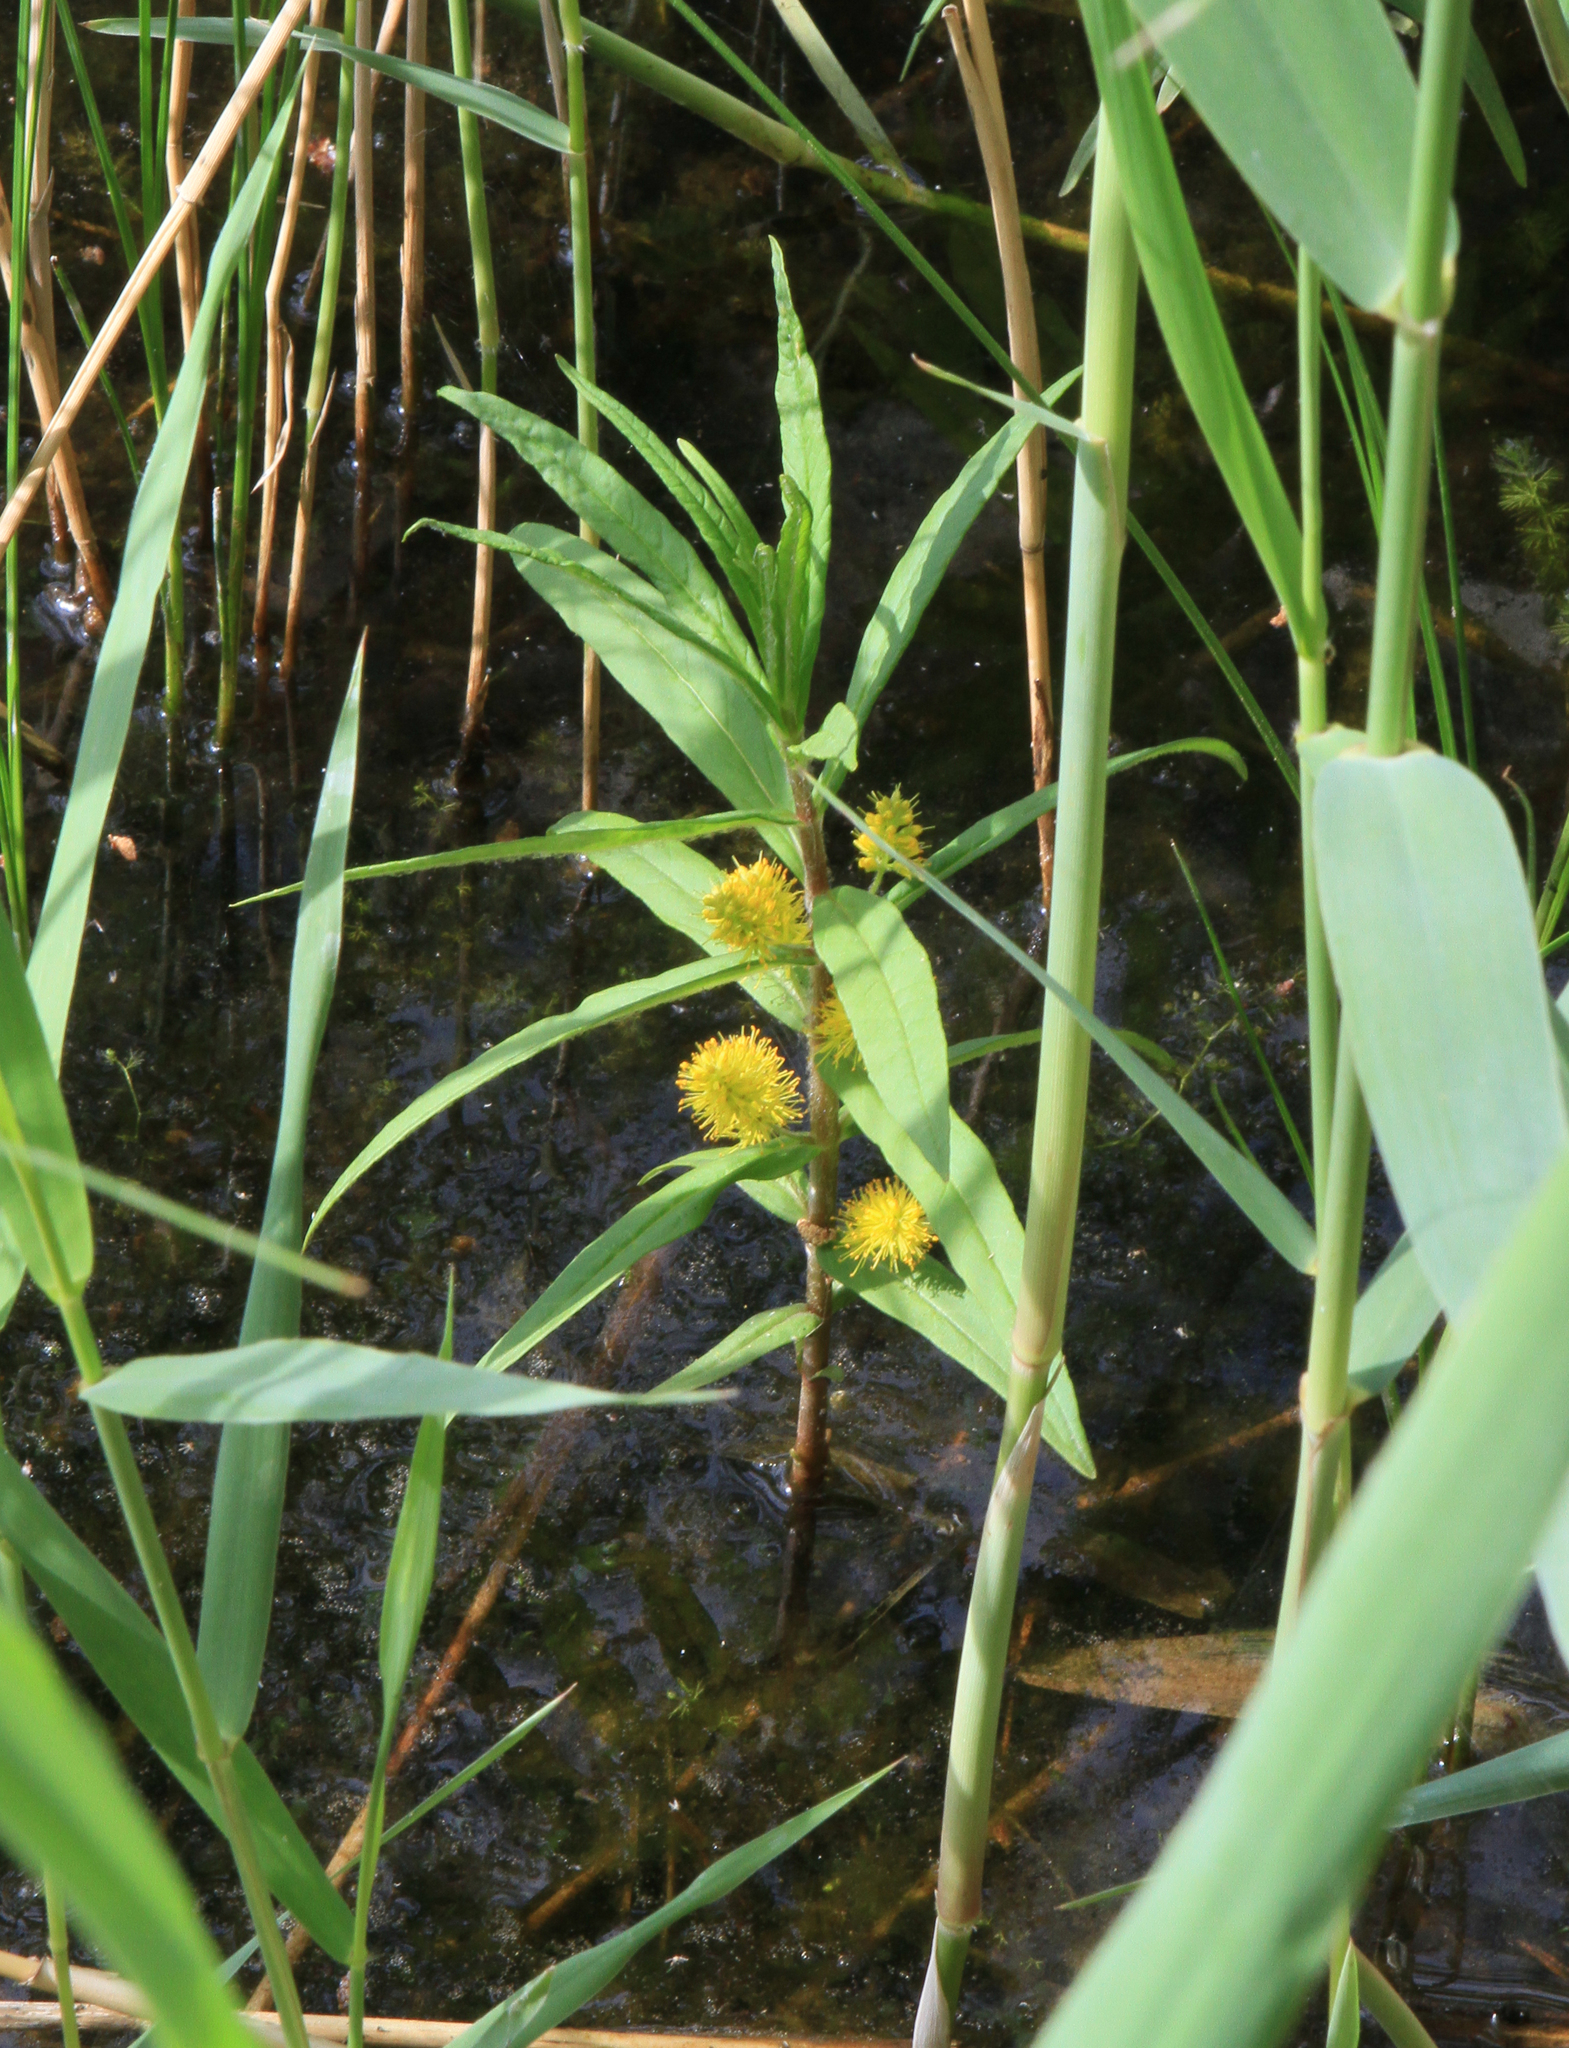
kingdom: Plantae
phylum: Tracheophyta
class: Magnoliopsida
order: Ericales
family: Primulaceae
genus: Lysimachia
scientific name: Lysimachia thyrsiflora
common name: Tufted loosestrife
